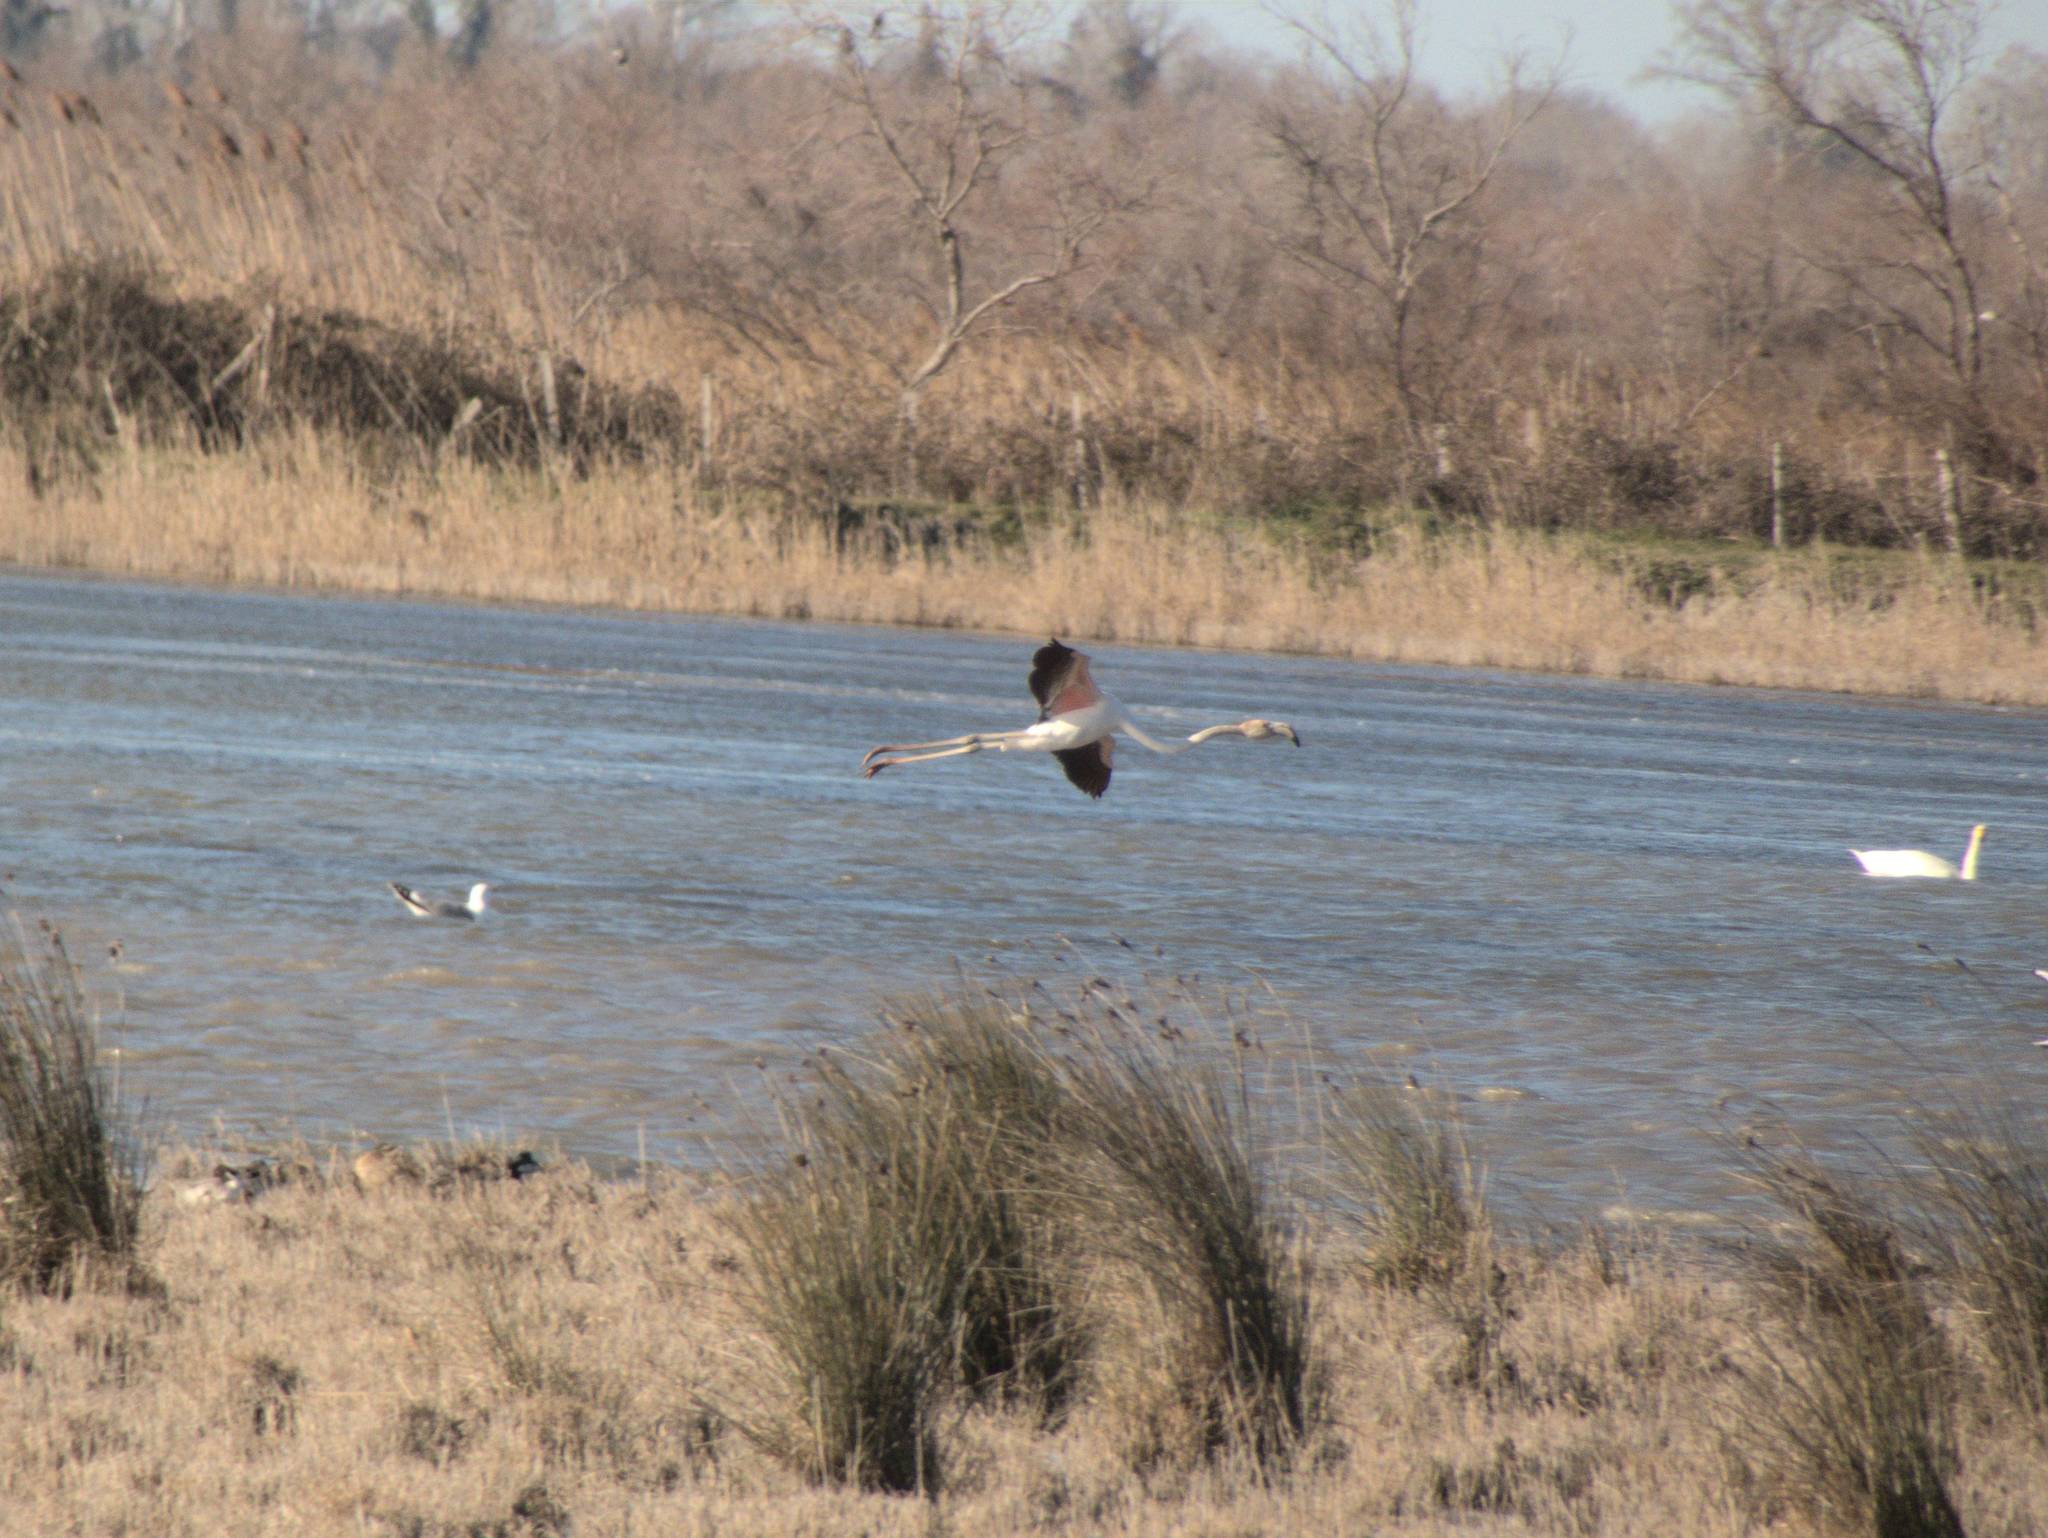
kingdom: Animalia
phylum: Chordata
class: Aves
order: Phoenicopteriformes
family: Phoenicopteridae
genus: Phoenicopterus
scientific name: Phoenicopterus roseus
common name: Greater flamingo
